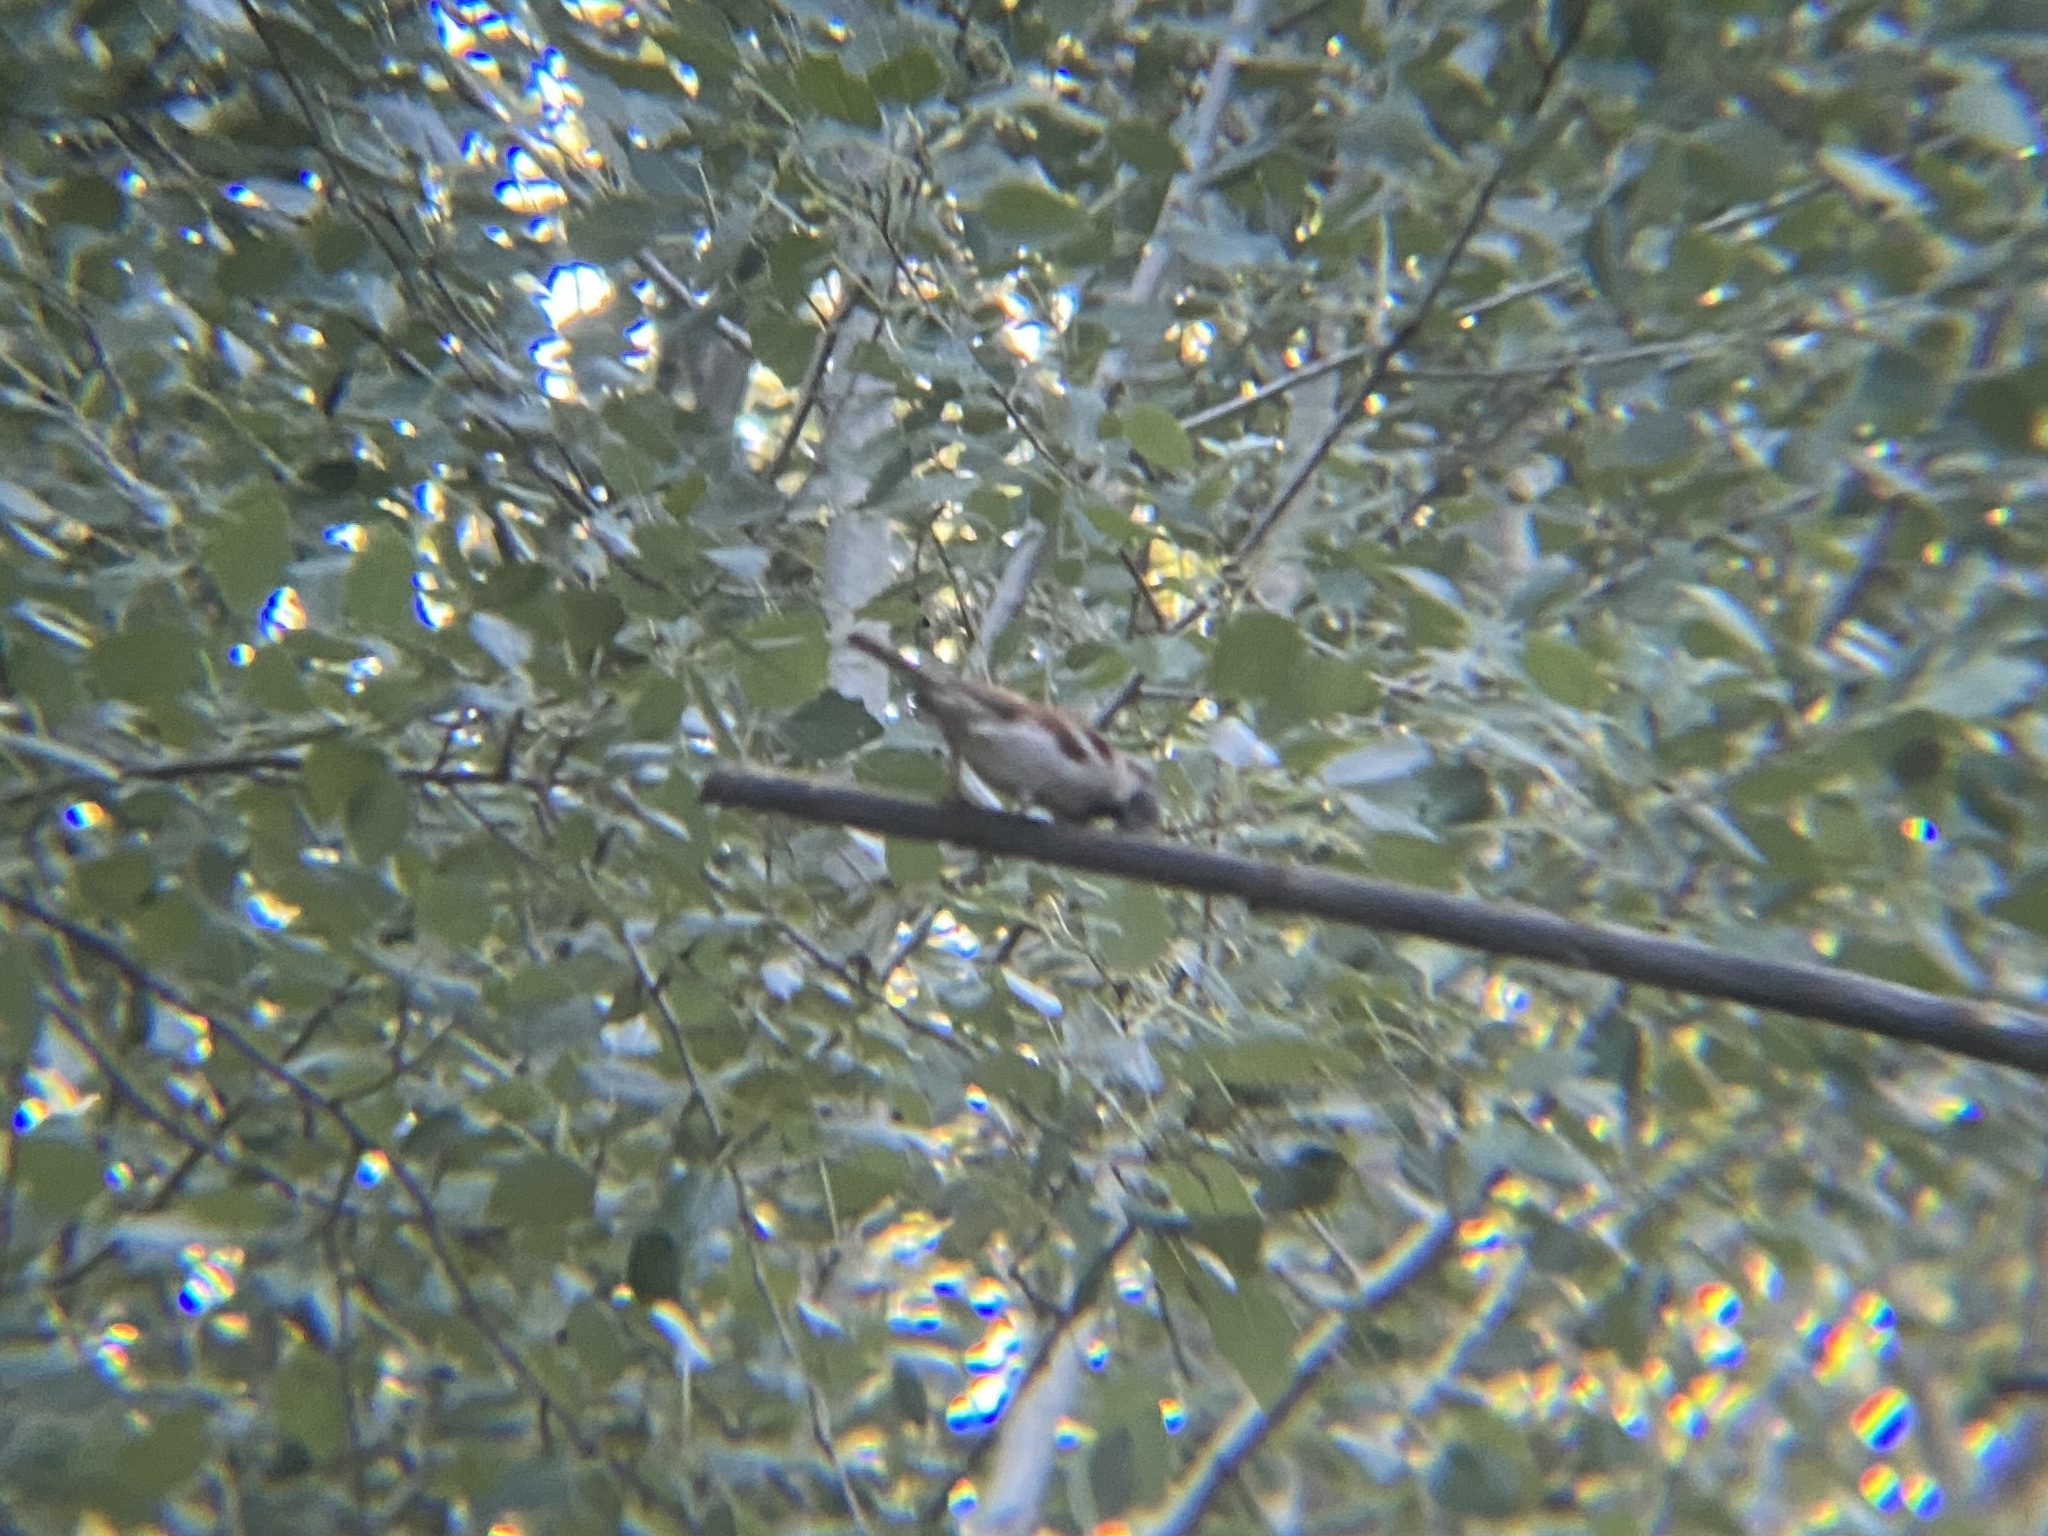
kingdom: Animalia
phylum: Chordata
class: Aves
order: Passeriformes
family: Passeridae
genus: Passer
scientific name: Passer domesticus
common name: House sparrow
